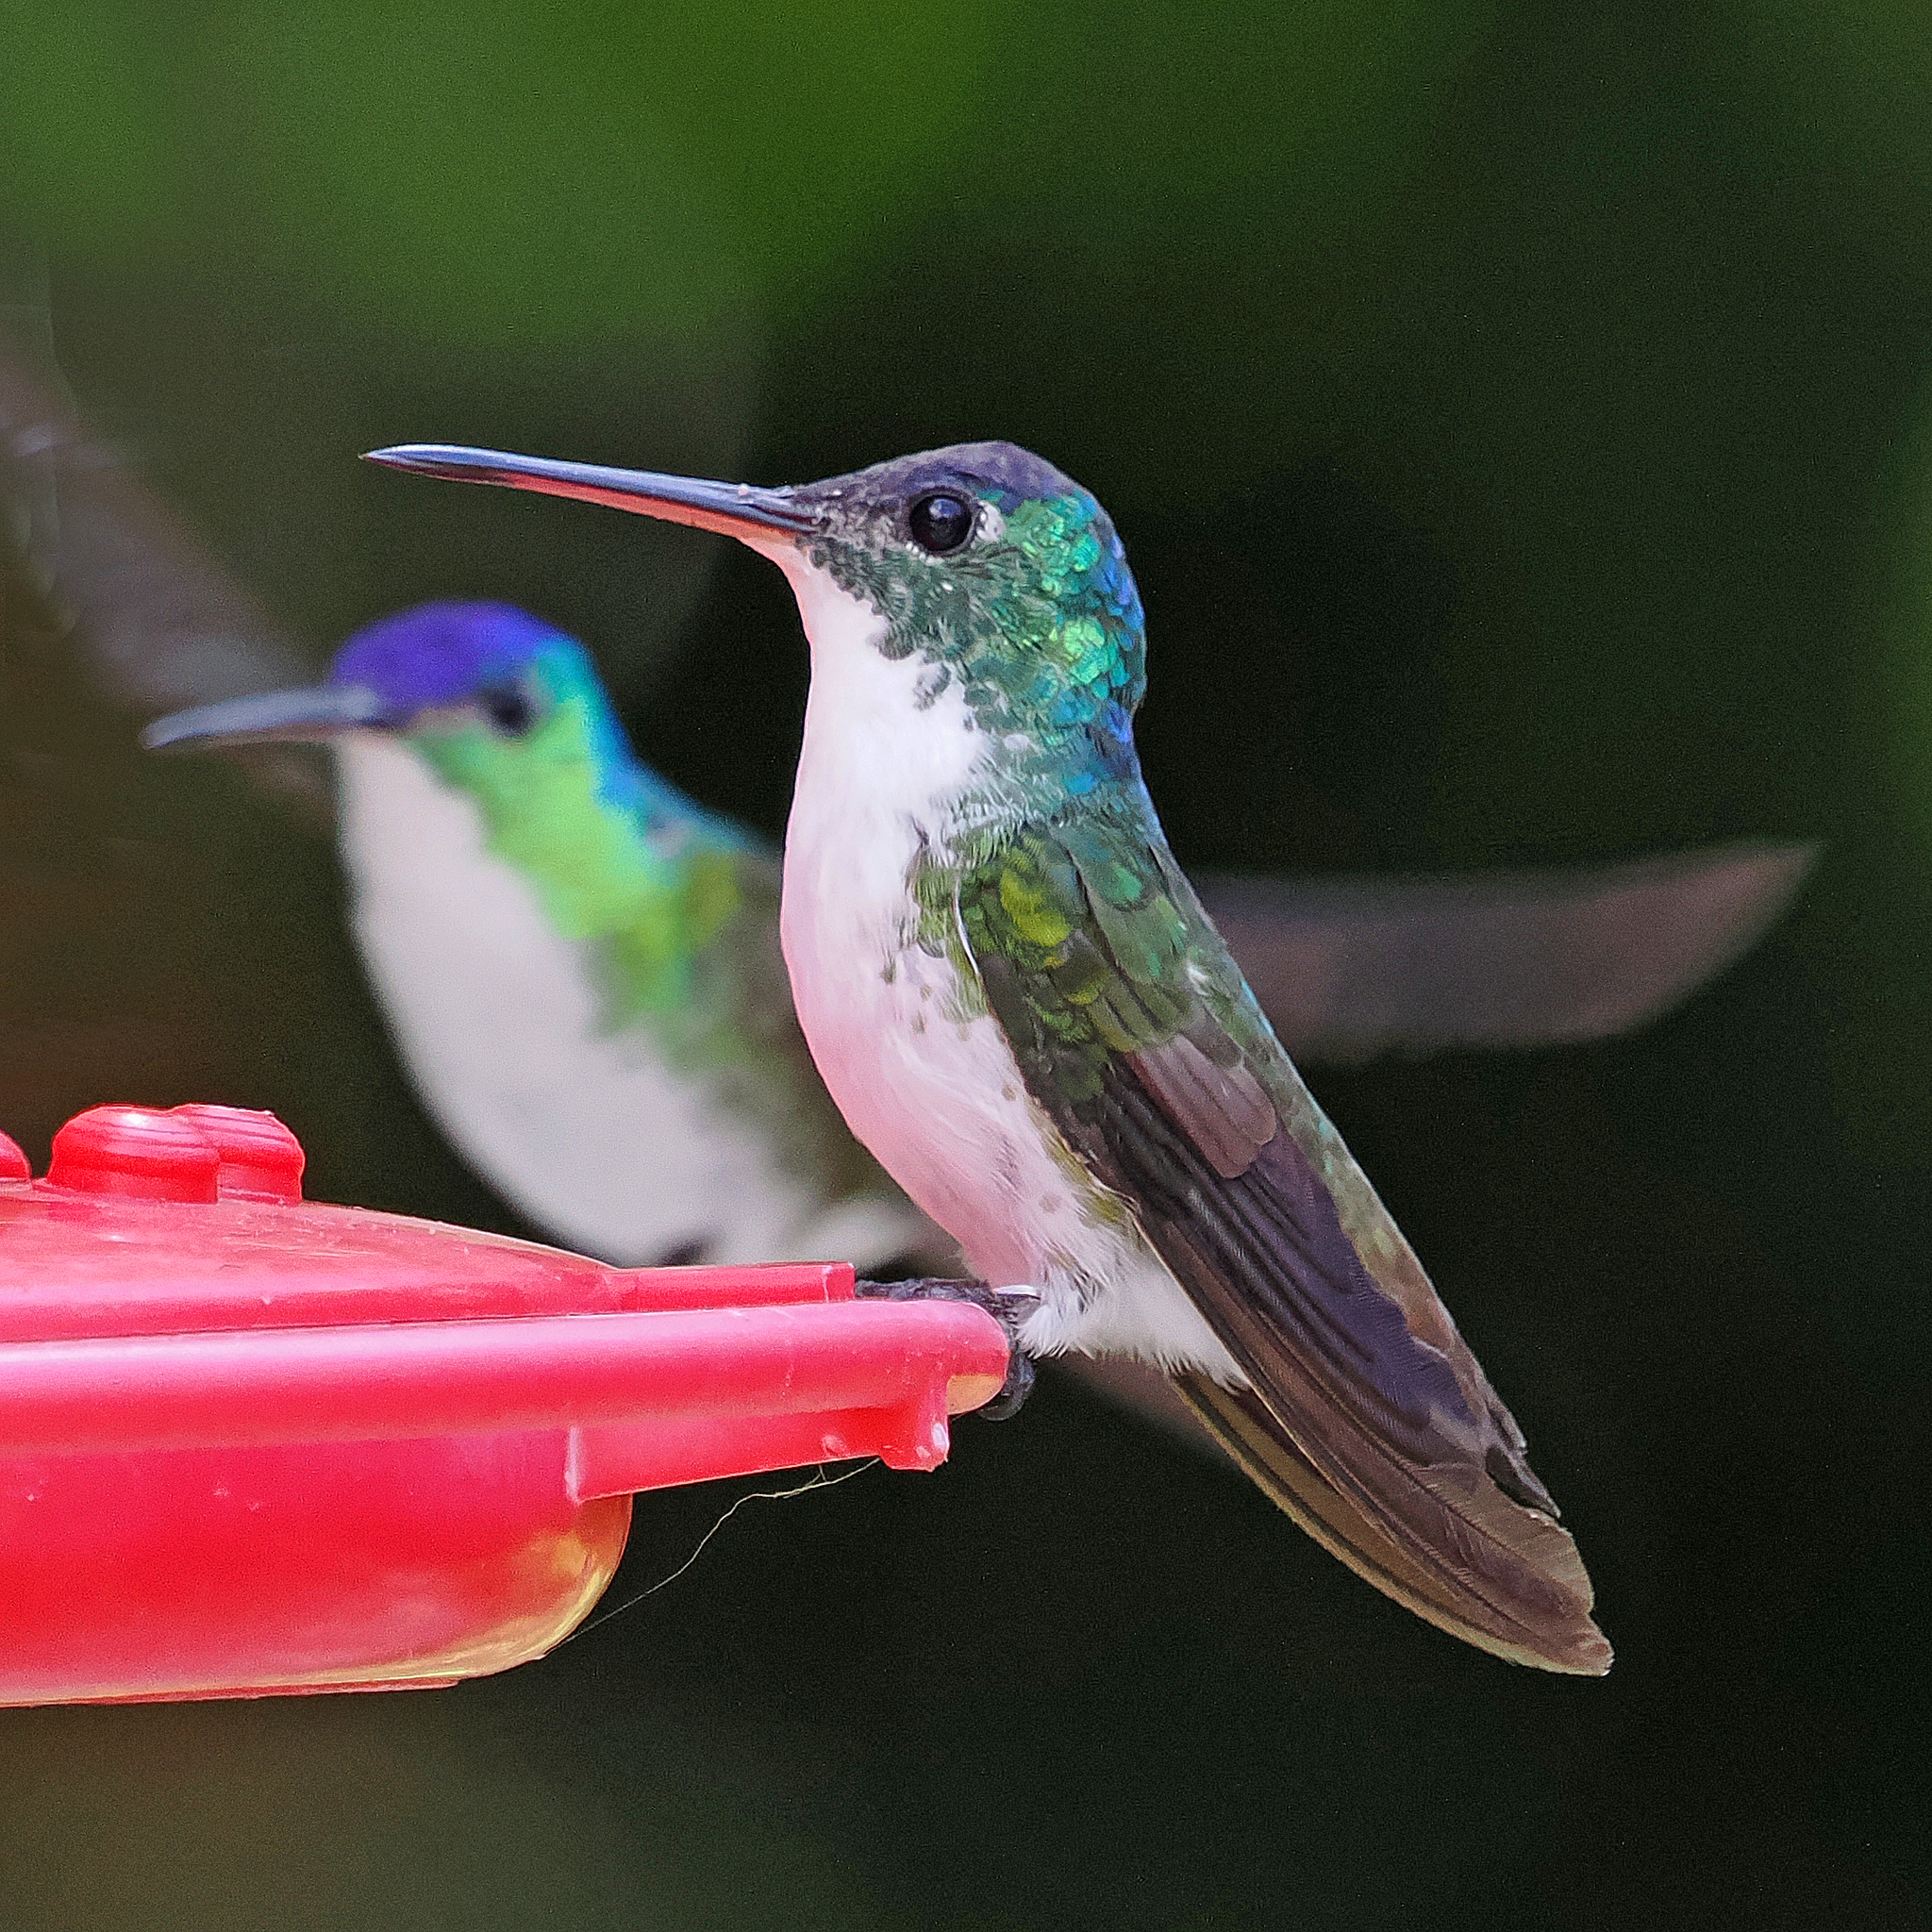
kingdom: Animalia
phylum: Chordata
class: Aves
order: Apodiformes
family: Trochilidae
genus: Uranomitra
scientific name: Uranomitra franciae
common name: Andean emerald
